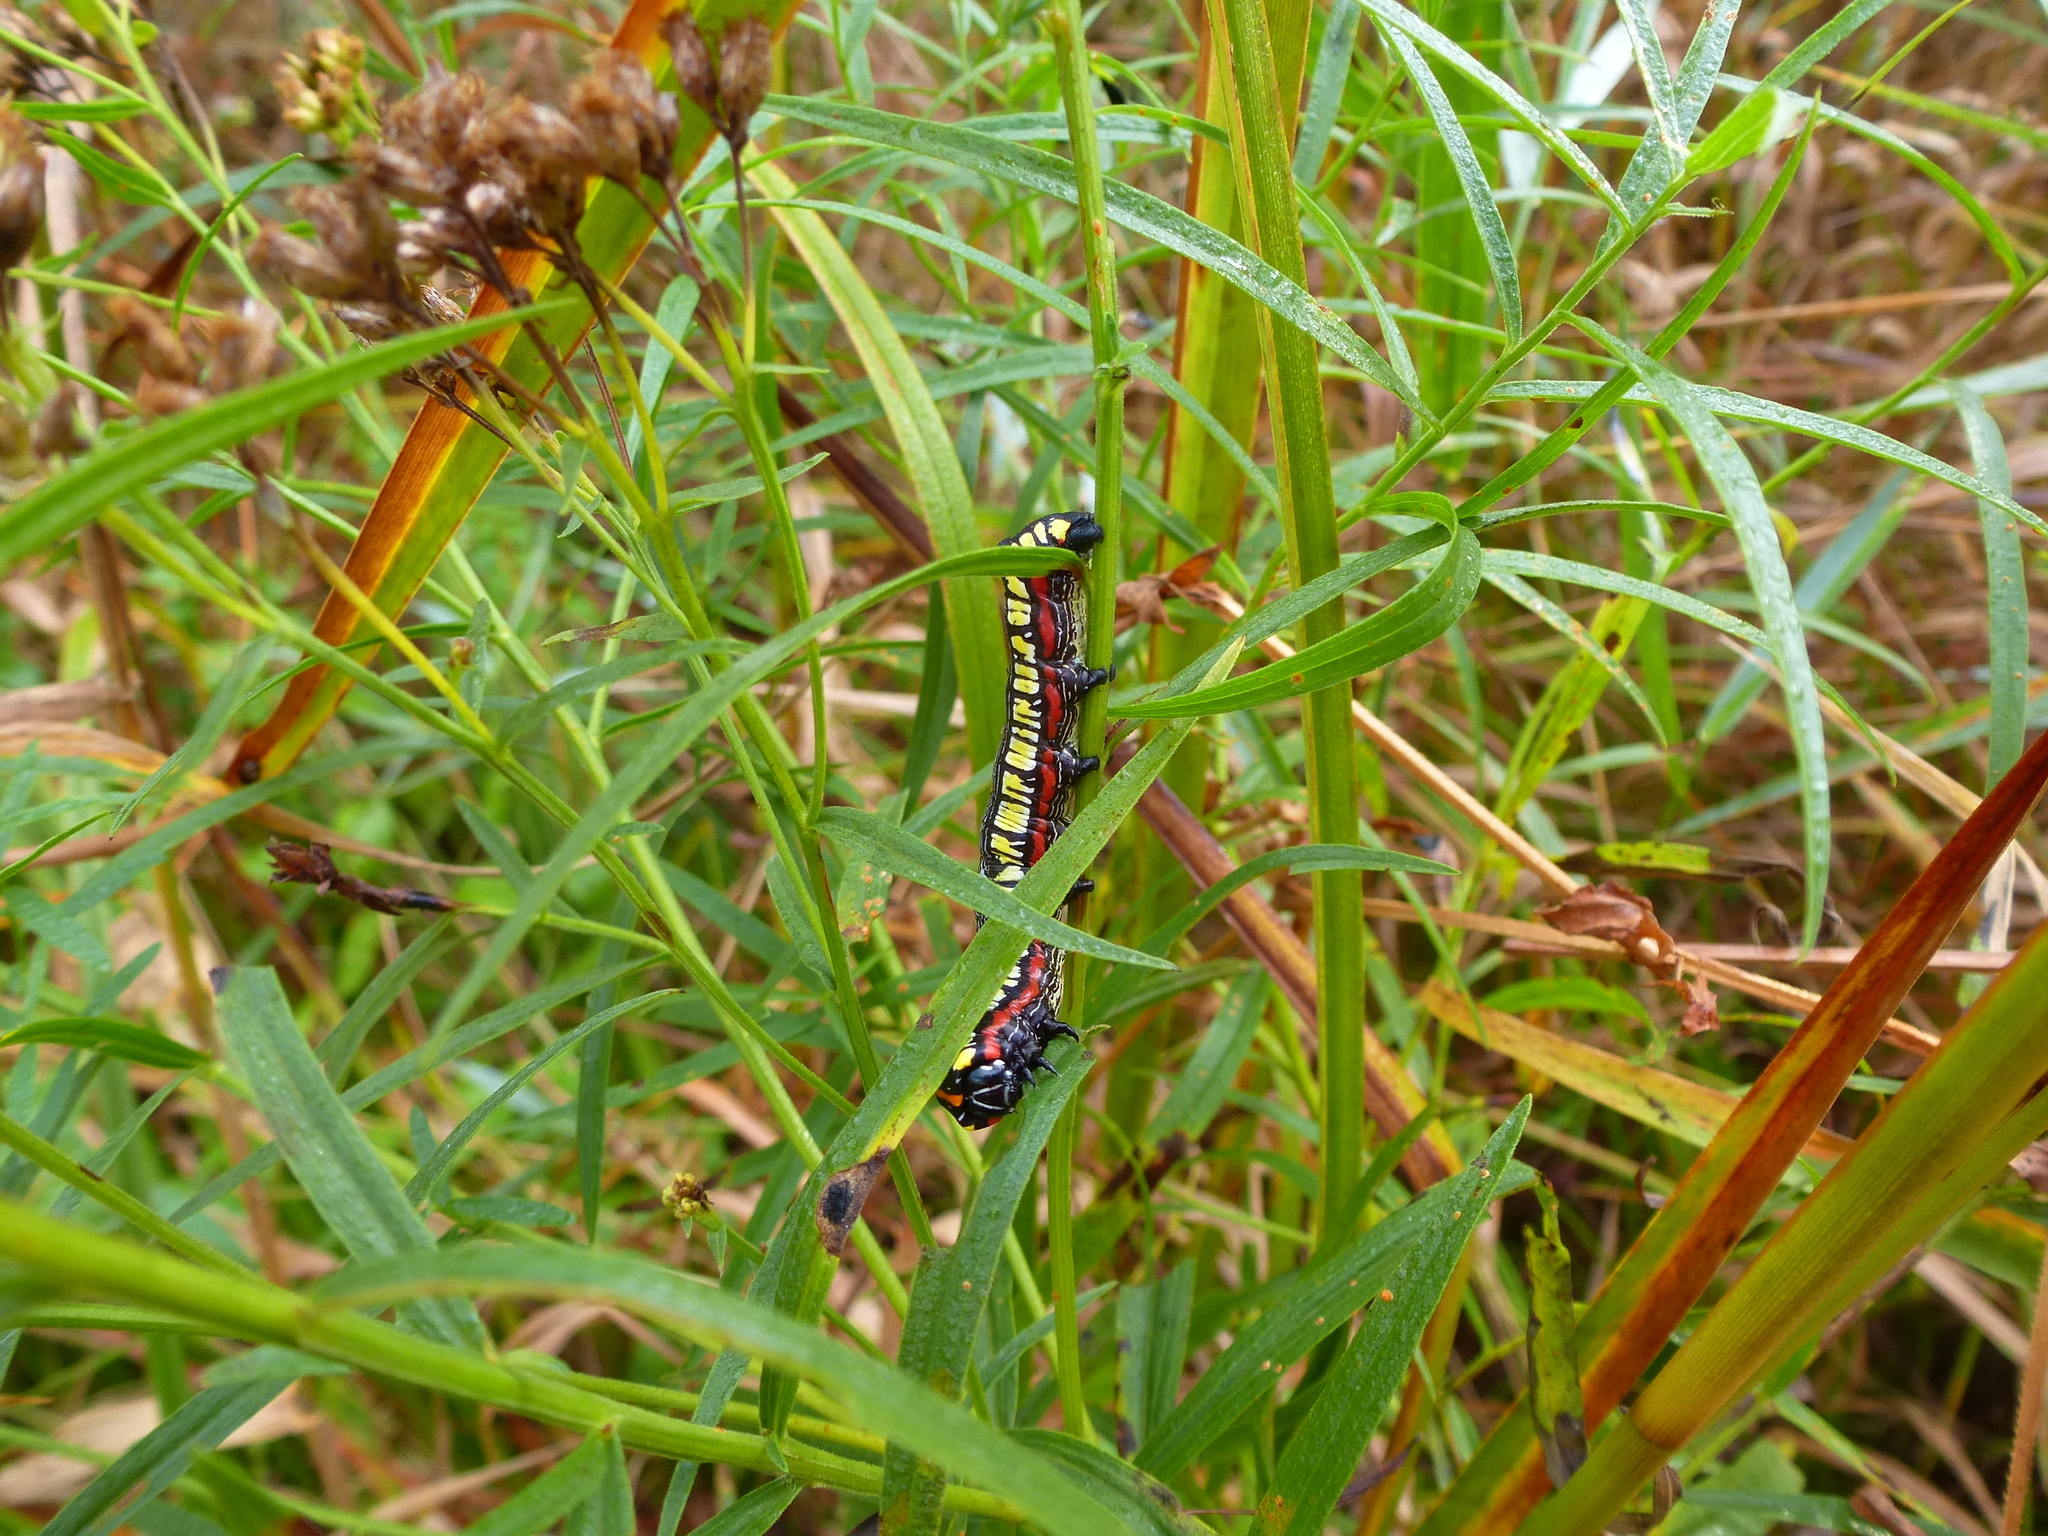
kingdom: Animalia
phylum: Arthropoda
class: Insecta
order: Lepidoptera
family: Noctuidae
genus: Cucullia
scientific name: Cucullia convexipennis
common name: Brown-hooded owlet
